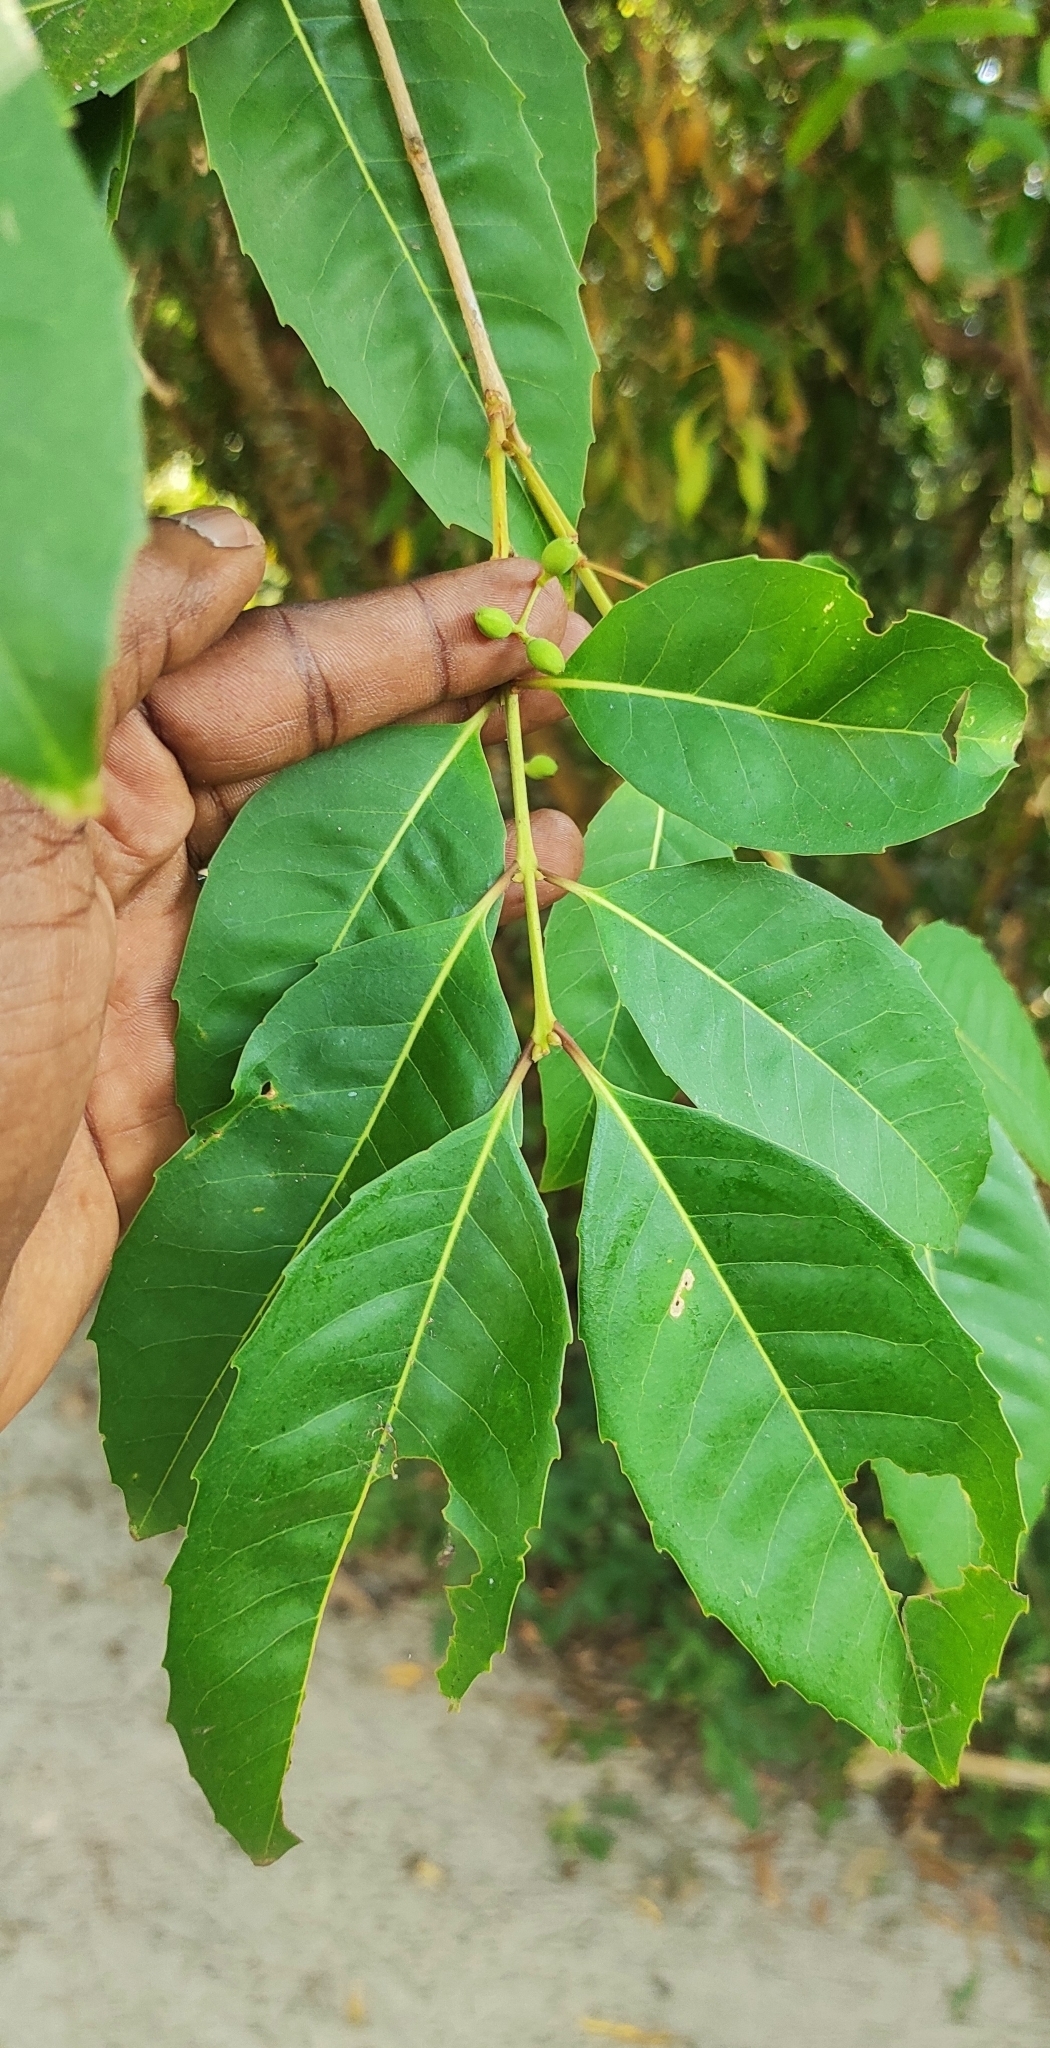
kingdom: Plantae
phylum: Tracheophyta
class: Magnoliopsida
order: Lamiales
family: Oleaceae
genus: Tetrapilus
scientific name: Tetrapilus dioicus
